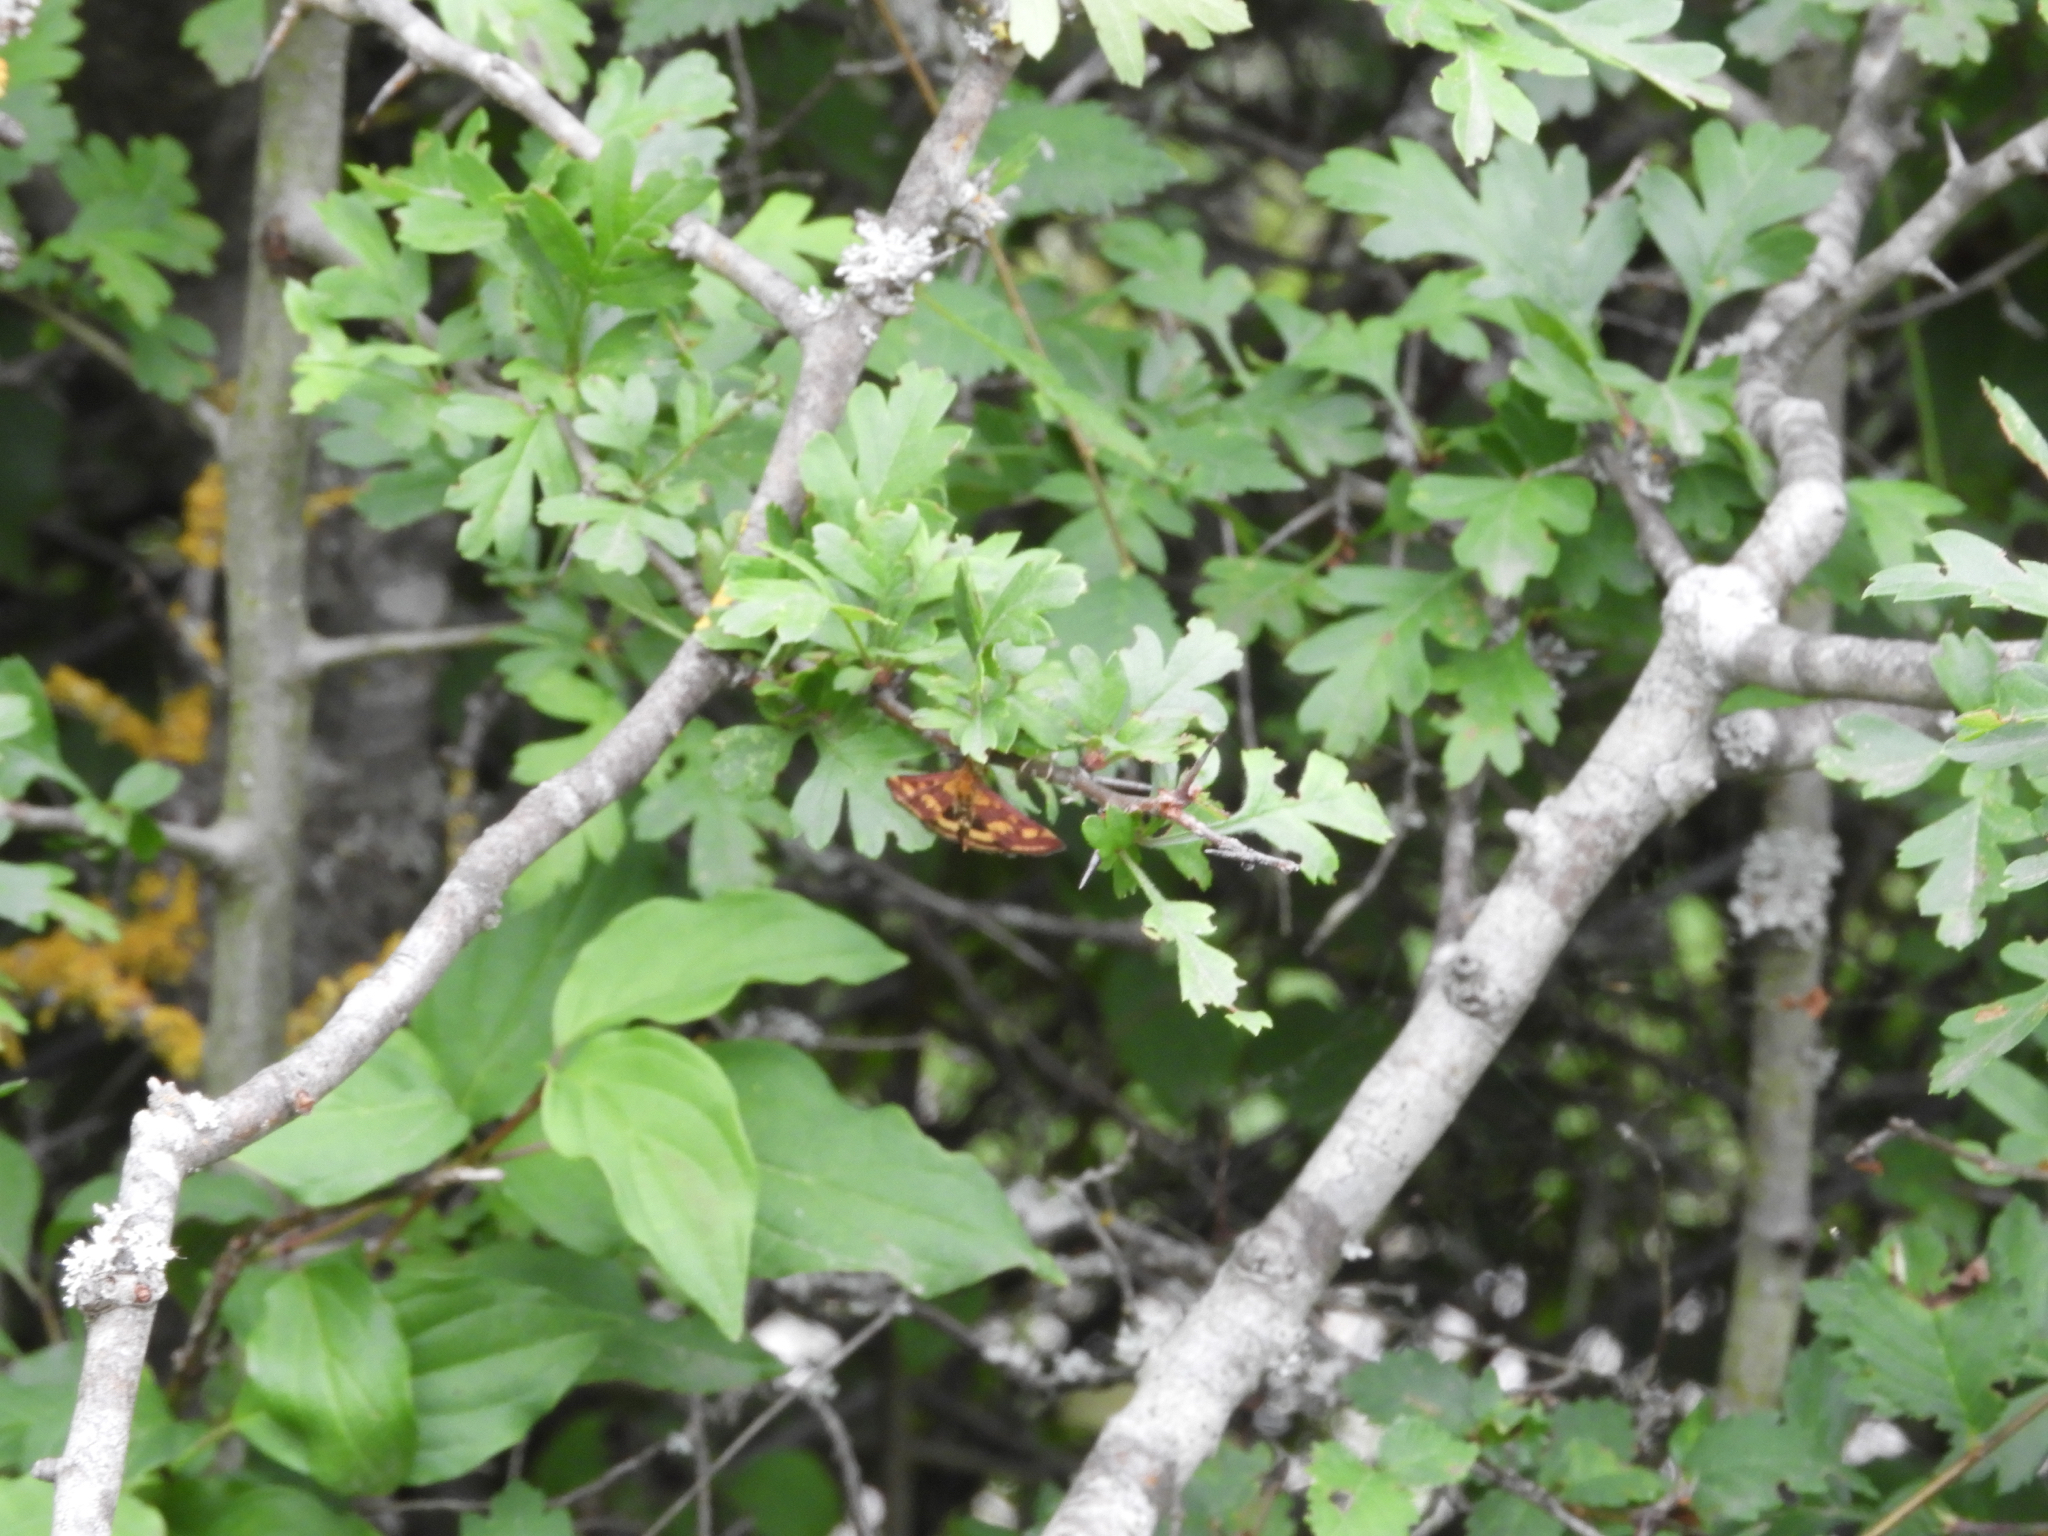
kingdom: Animalia
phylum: Arthropoda
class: Insecta
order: Lepidoptera
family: Crambidae
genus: Pyrausta
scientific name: Pyrausta purpuralis
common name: Common purple & gold
